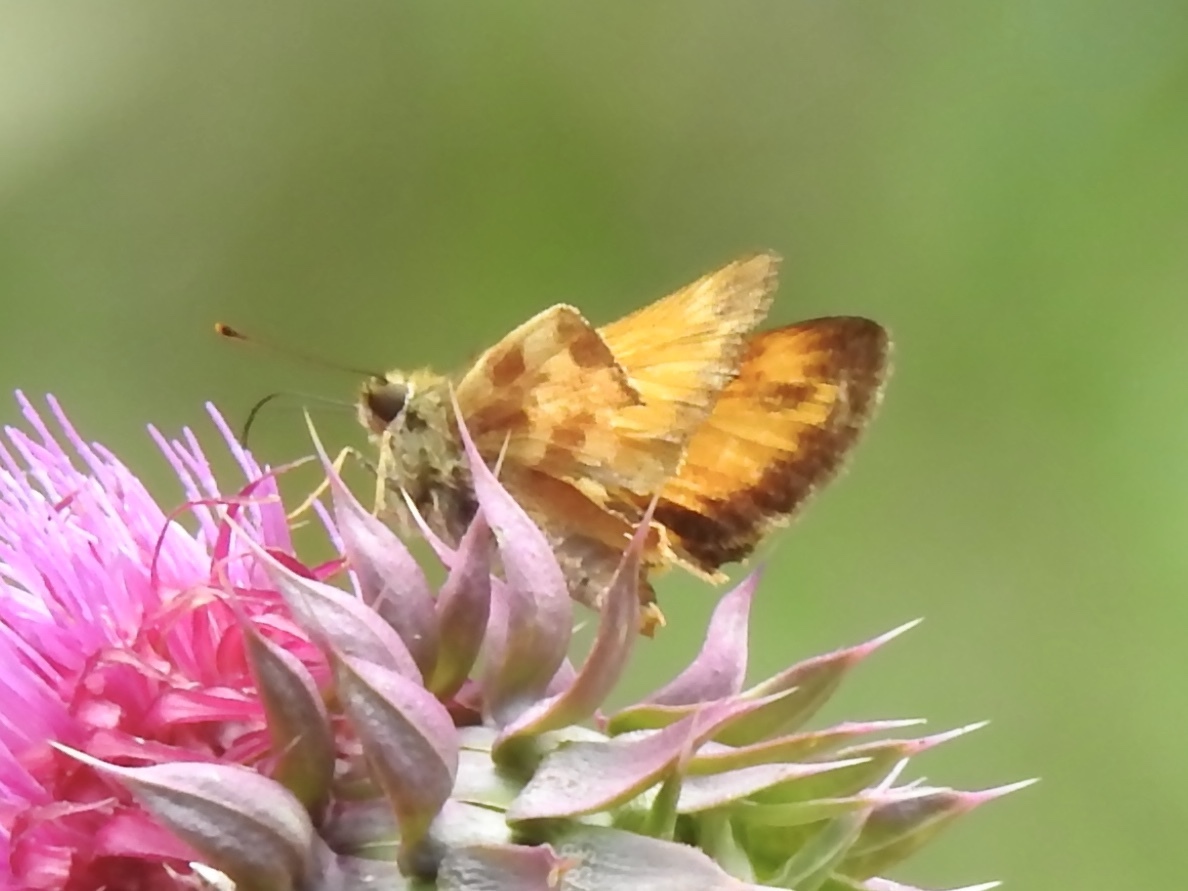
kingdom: Animalia
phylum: Arthropoda
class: Insecta
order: Lepidoptera
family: Hesperiidae
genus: Lon
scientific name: Lon taxiles
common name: Taxiles skipper
